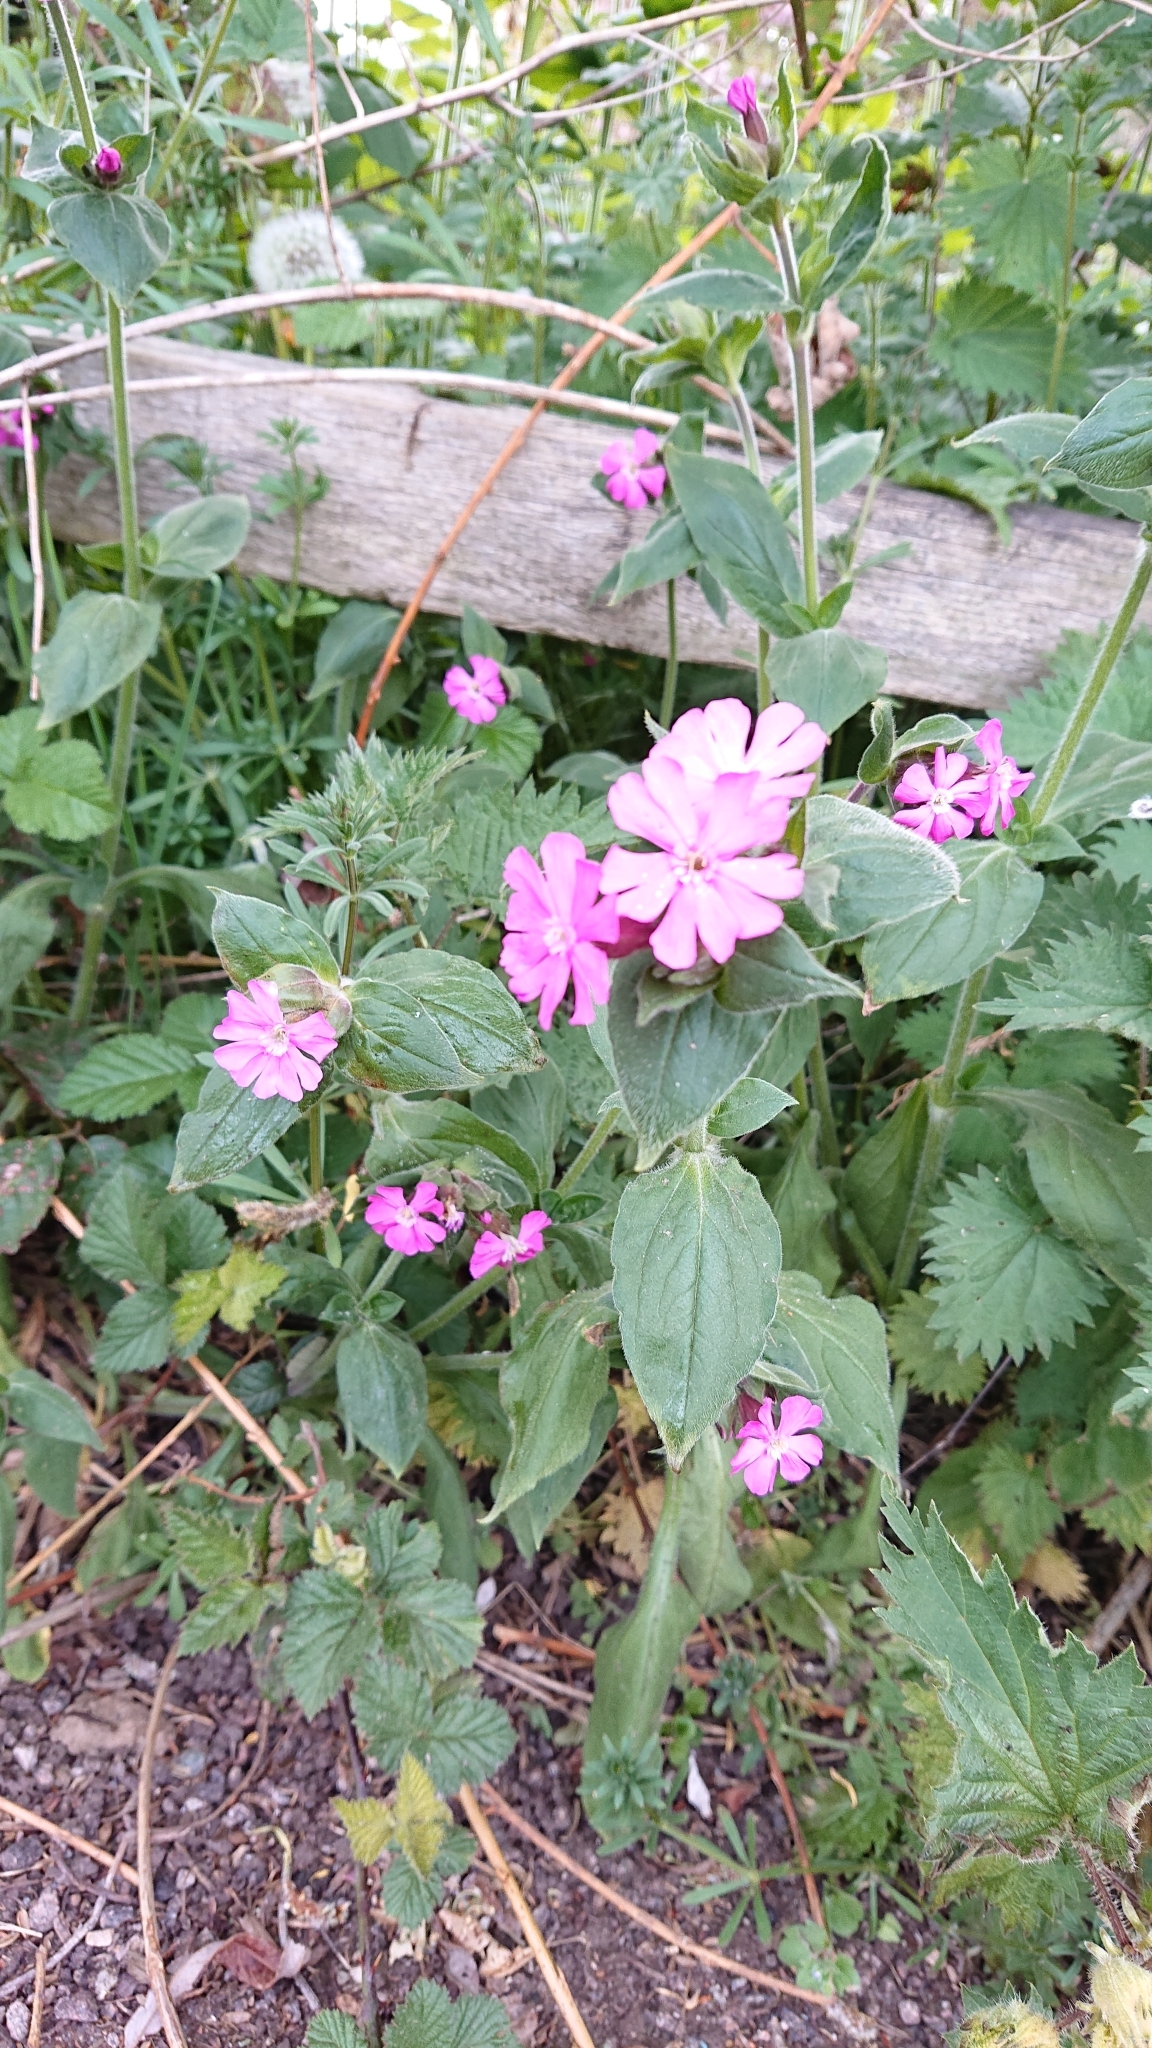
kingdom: Plantae
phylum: Tracheophyta
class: Magnoliopsida
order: Caryophyllales
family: Caryophyllaceae
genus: Silene
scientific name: Silene dioica
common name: Red campion
